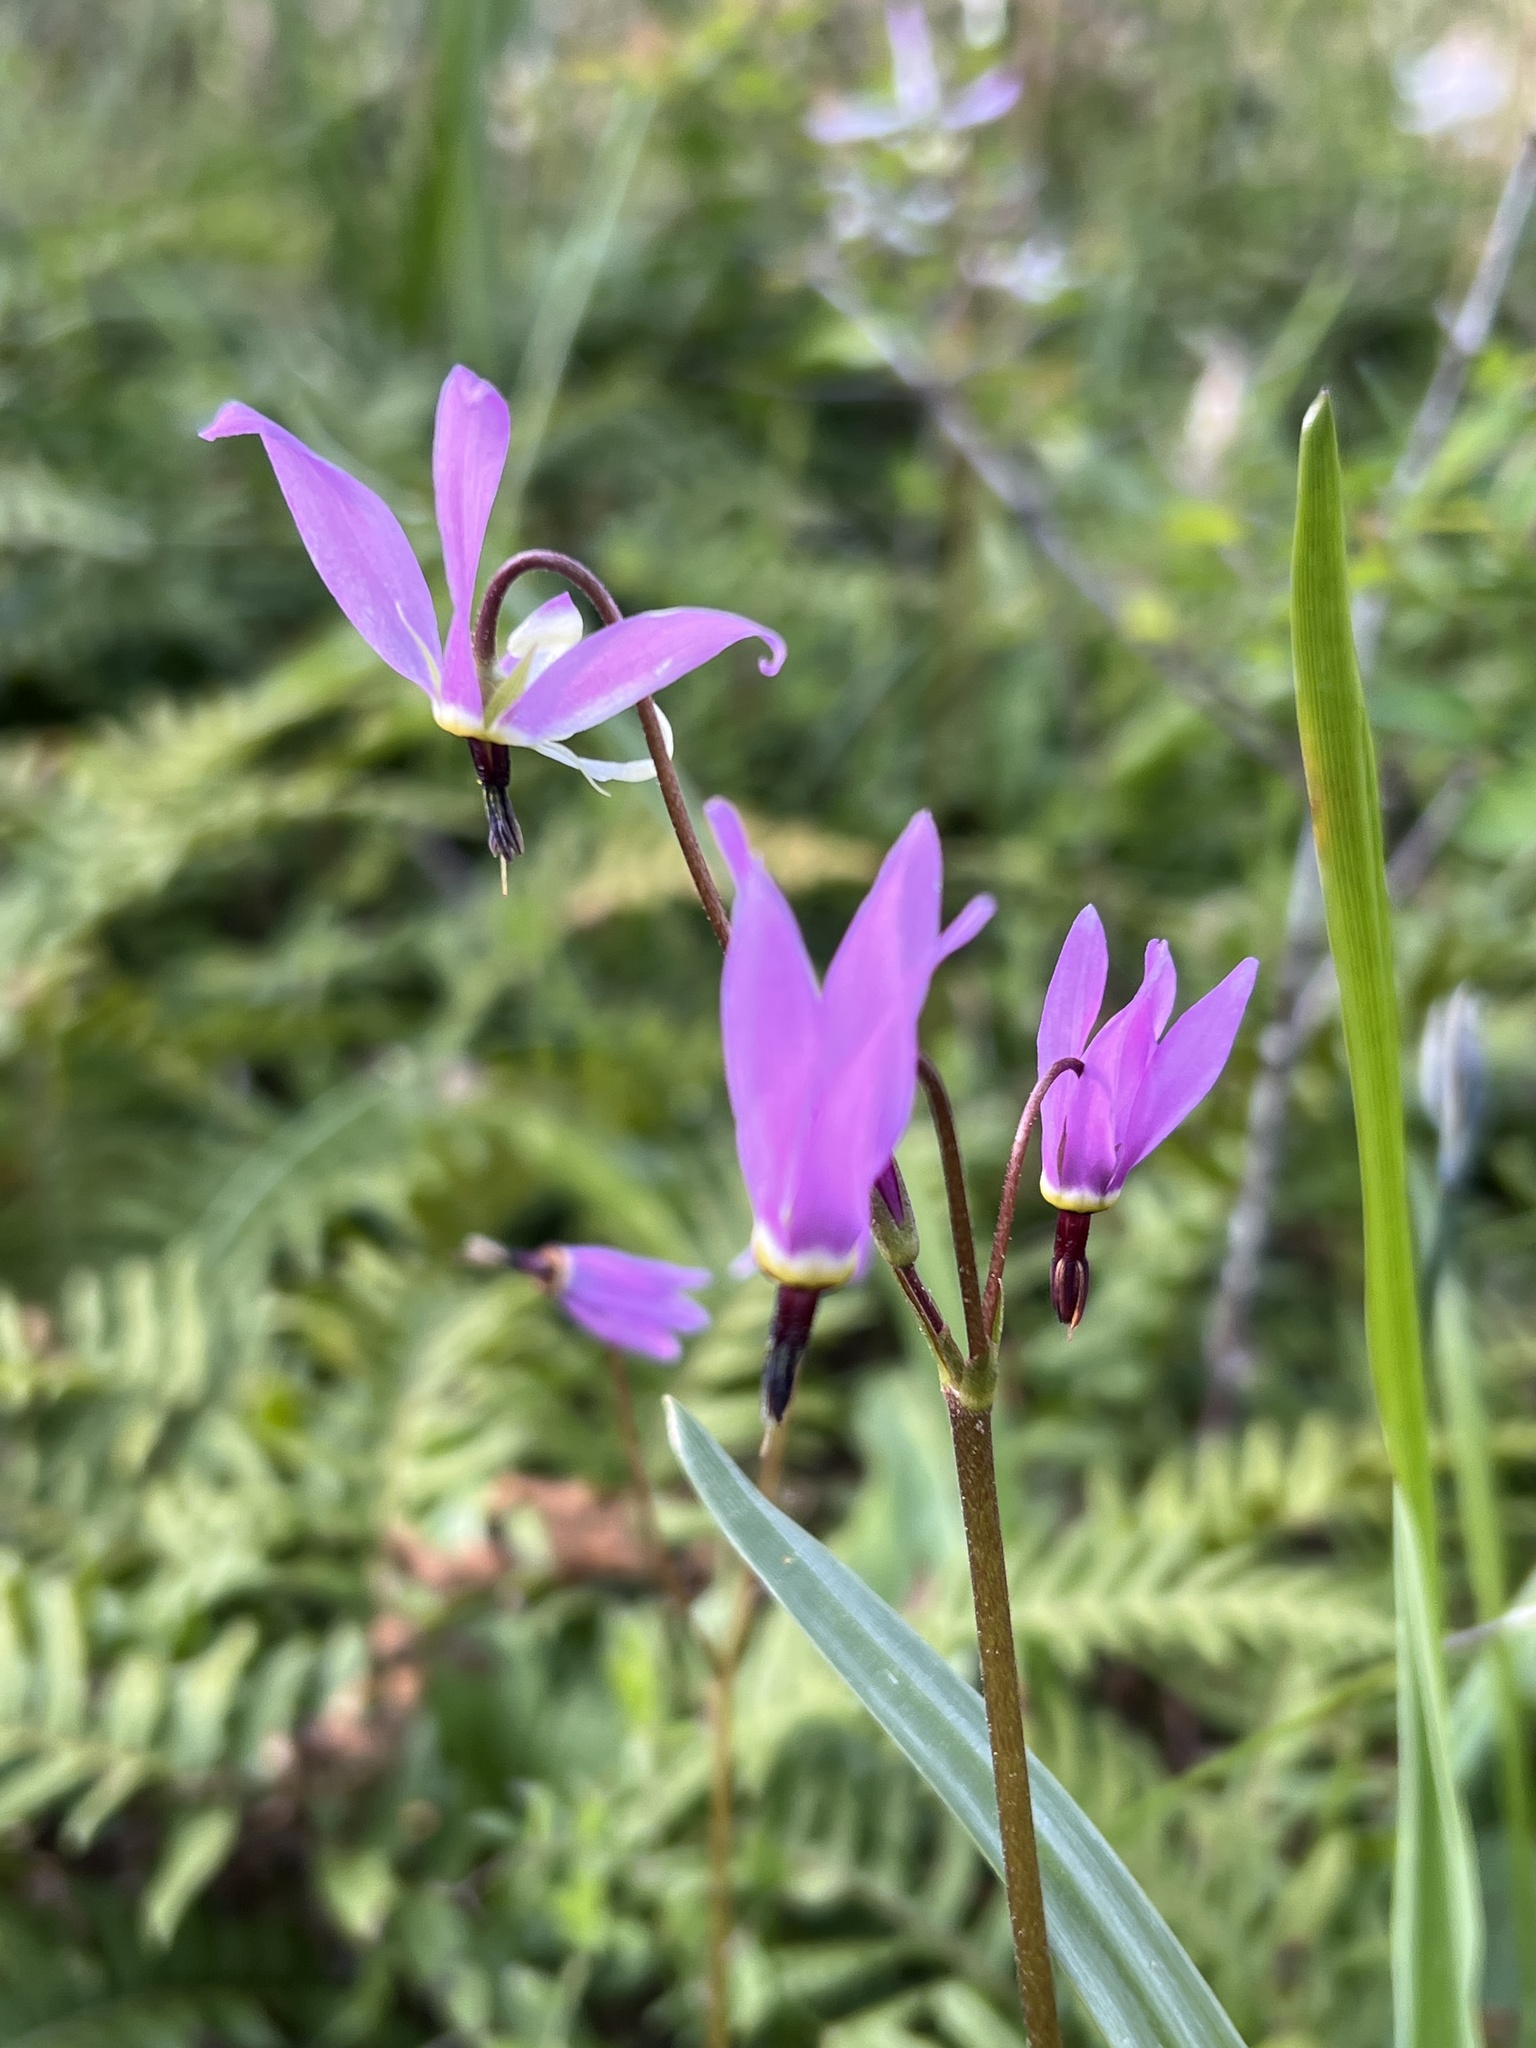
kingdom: Plantae
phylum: Tracheophyta
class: Magnoliopsida
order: Ericales
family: Primulaceae
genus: Dodecatheon
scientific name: Dodecatheon hendersonii
